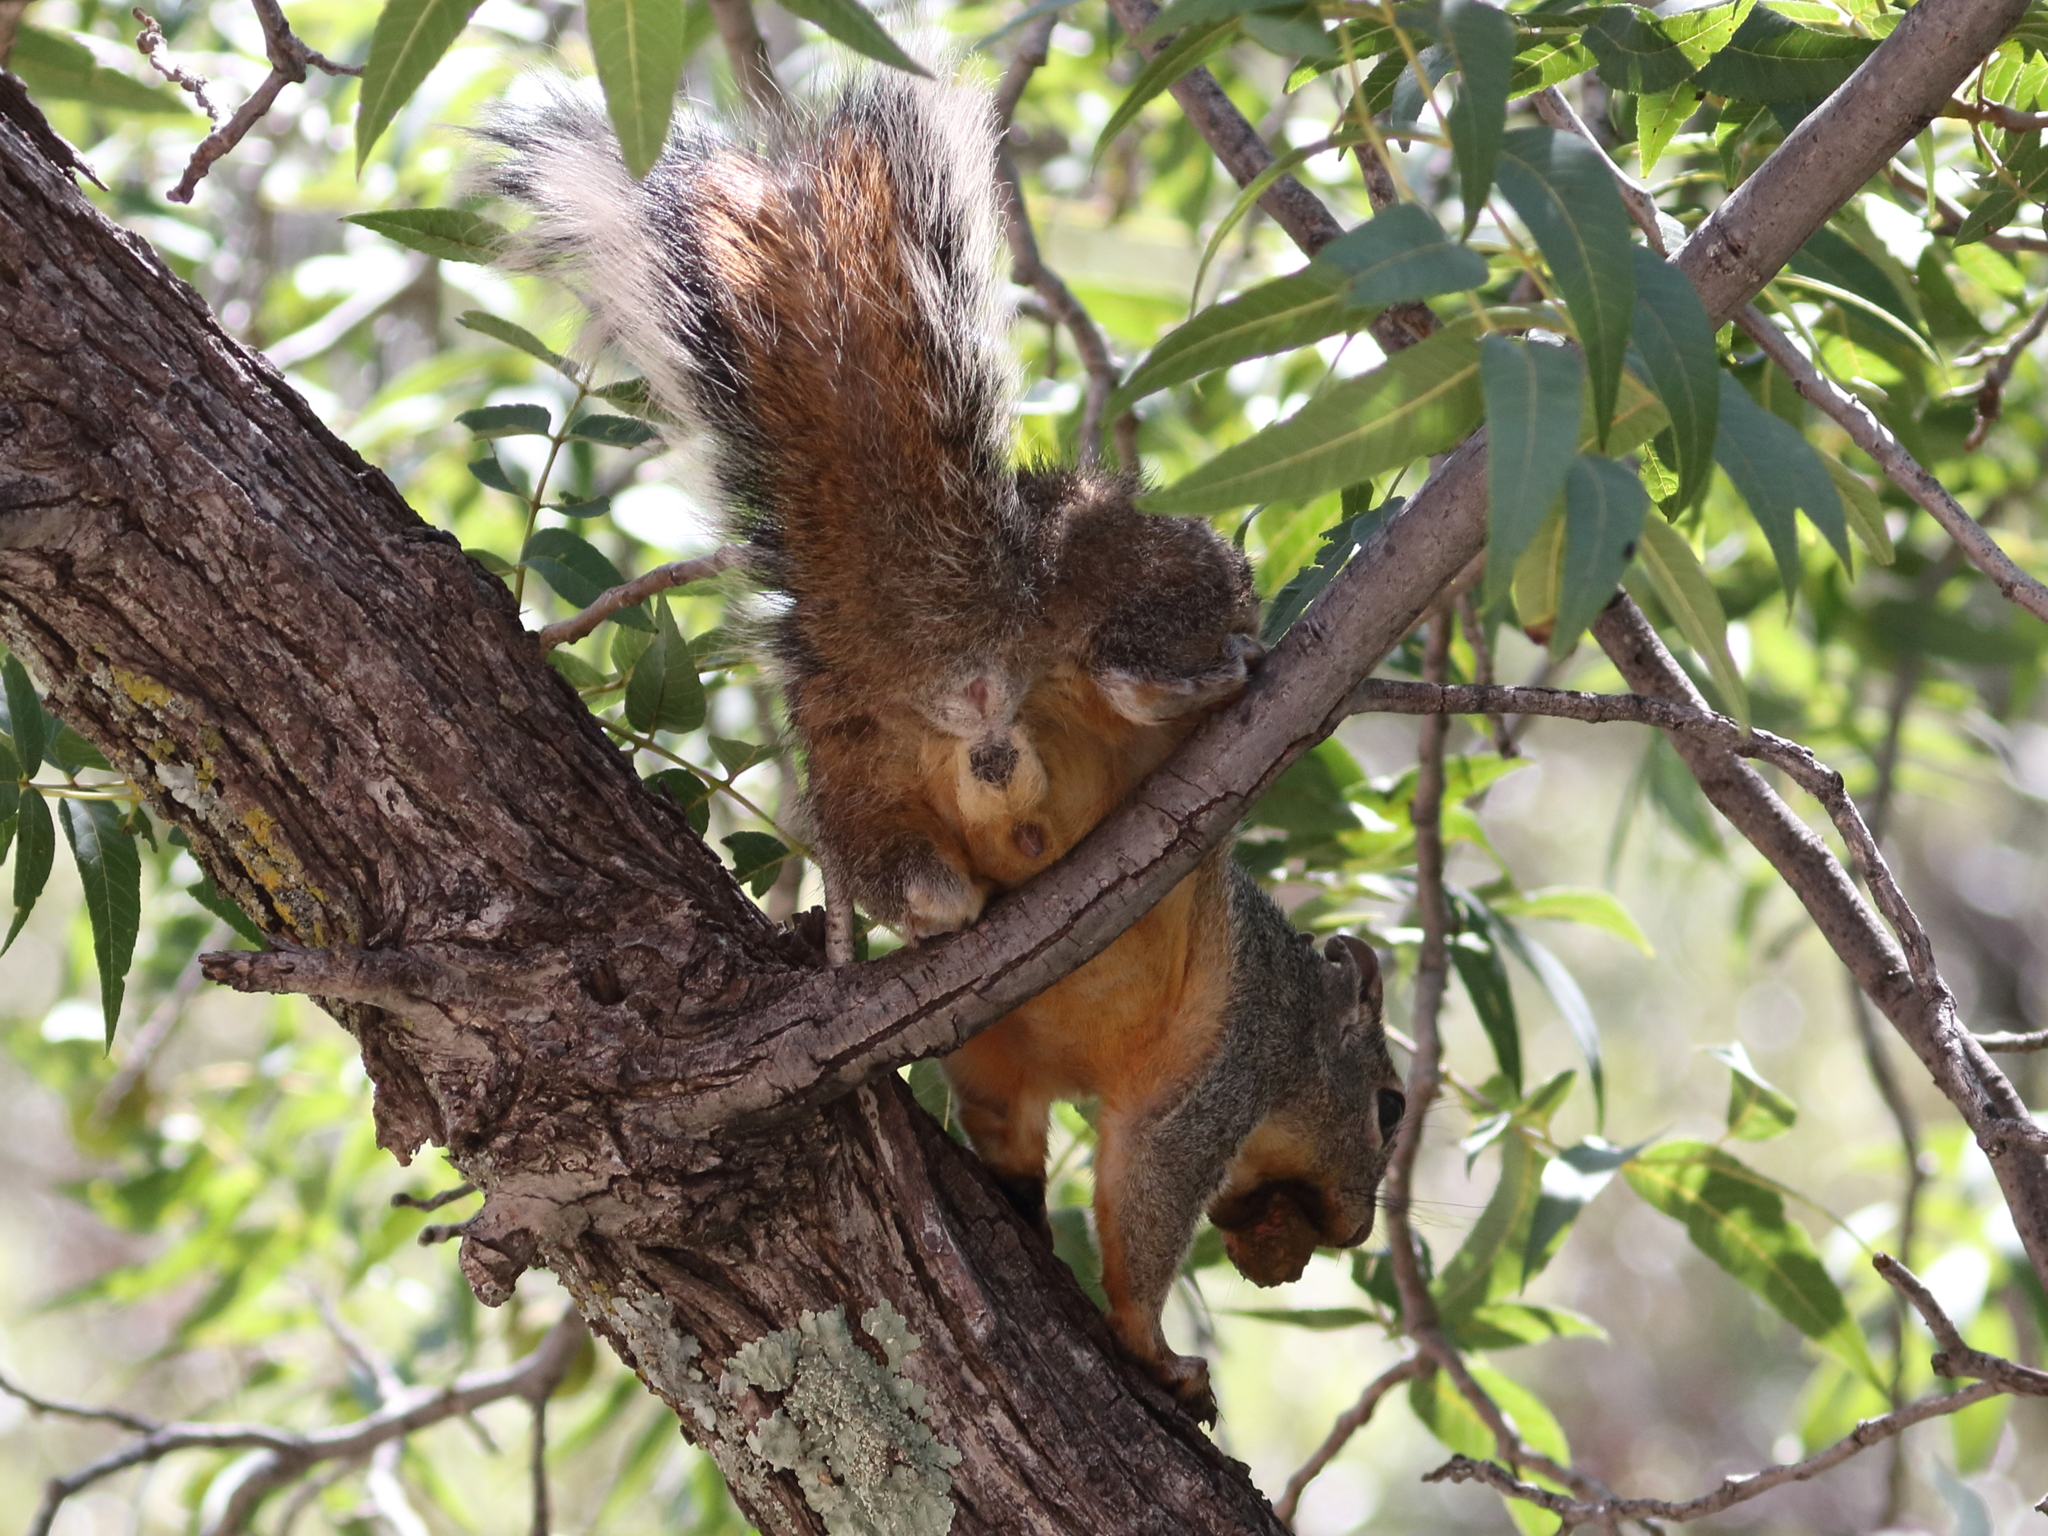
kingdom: Animalia
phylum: Chordata
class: Mammalia
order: Rodentia
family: Sciuridae
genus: Sciurus
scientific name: Sciurus arizonensis
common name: Arizona gray squirrel
